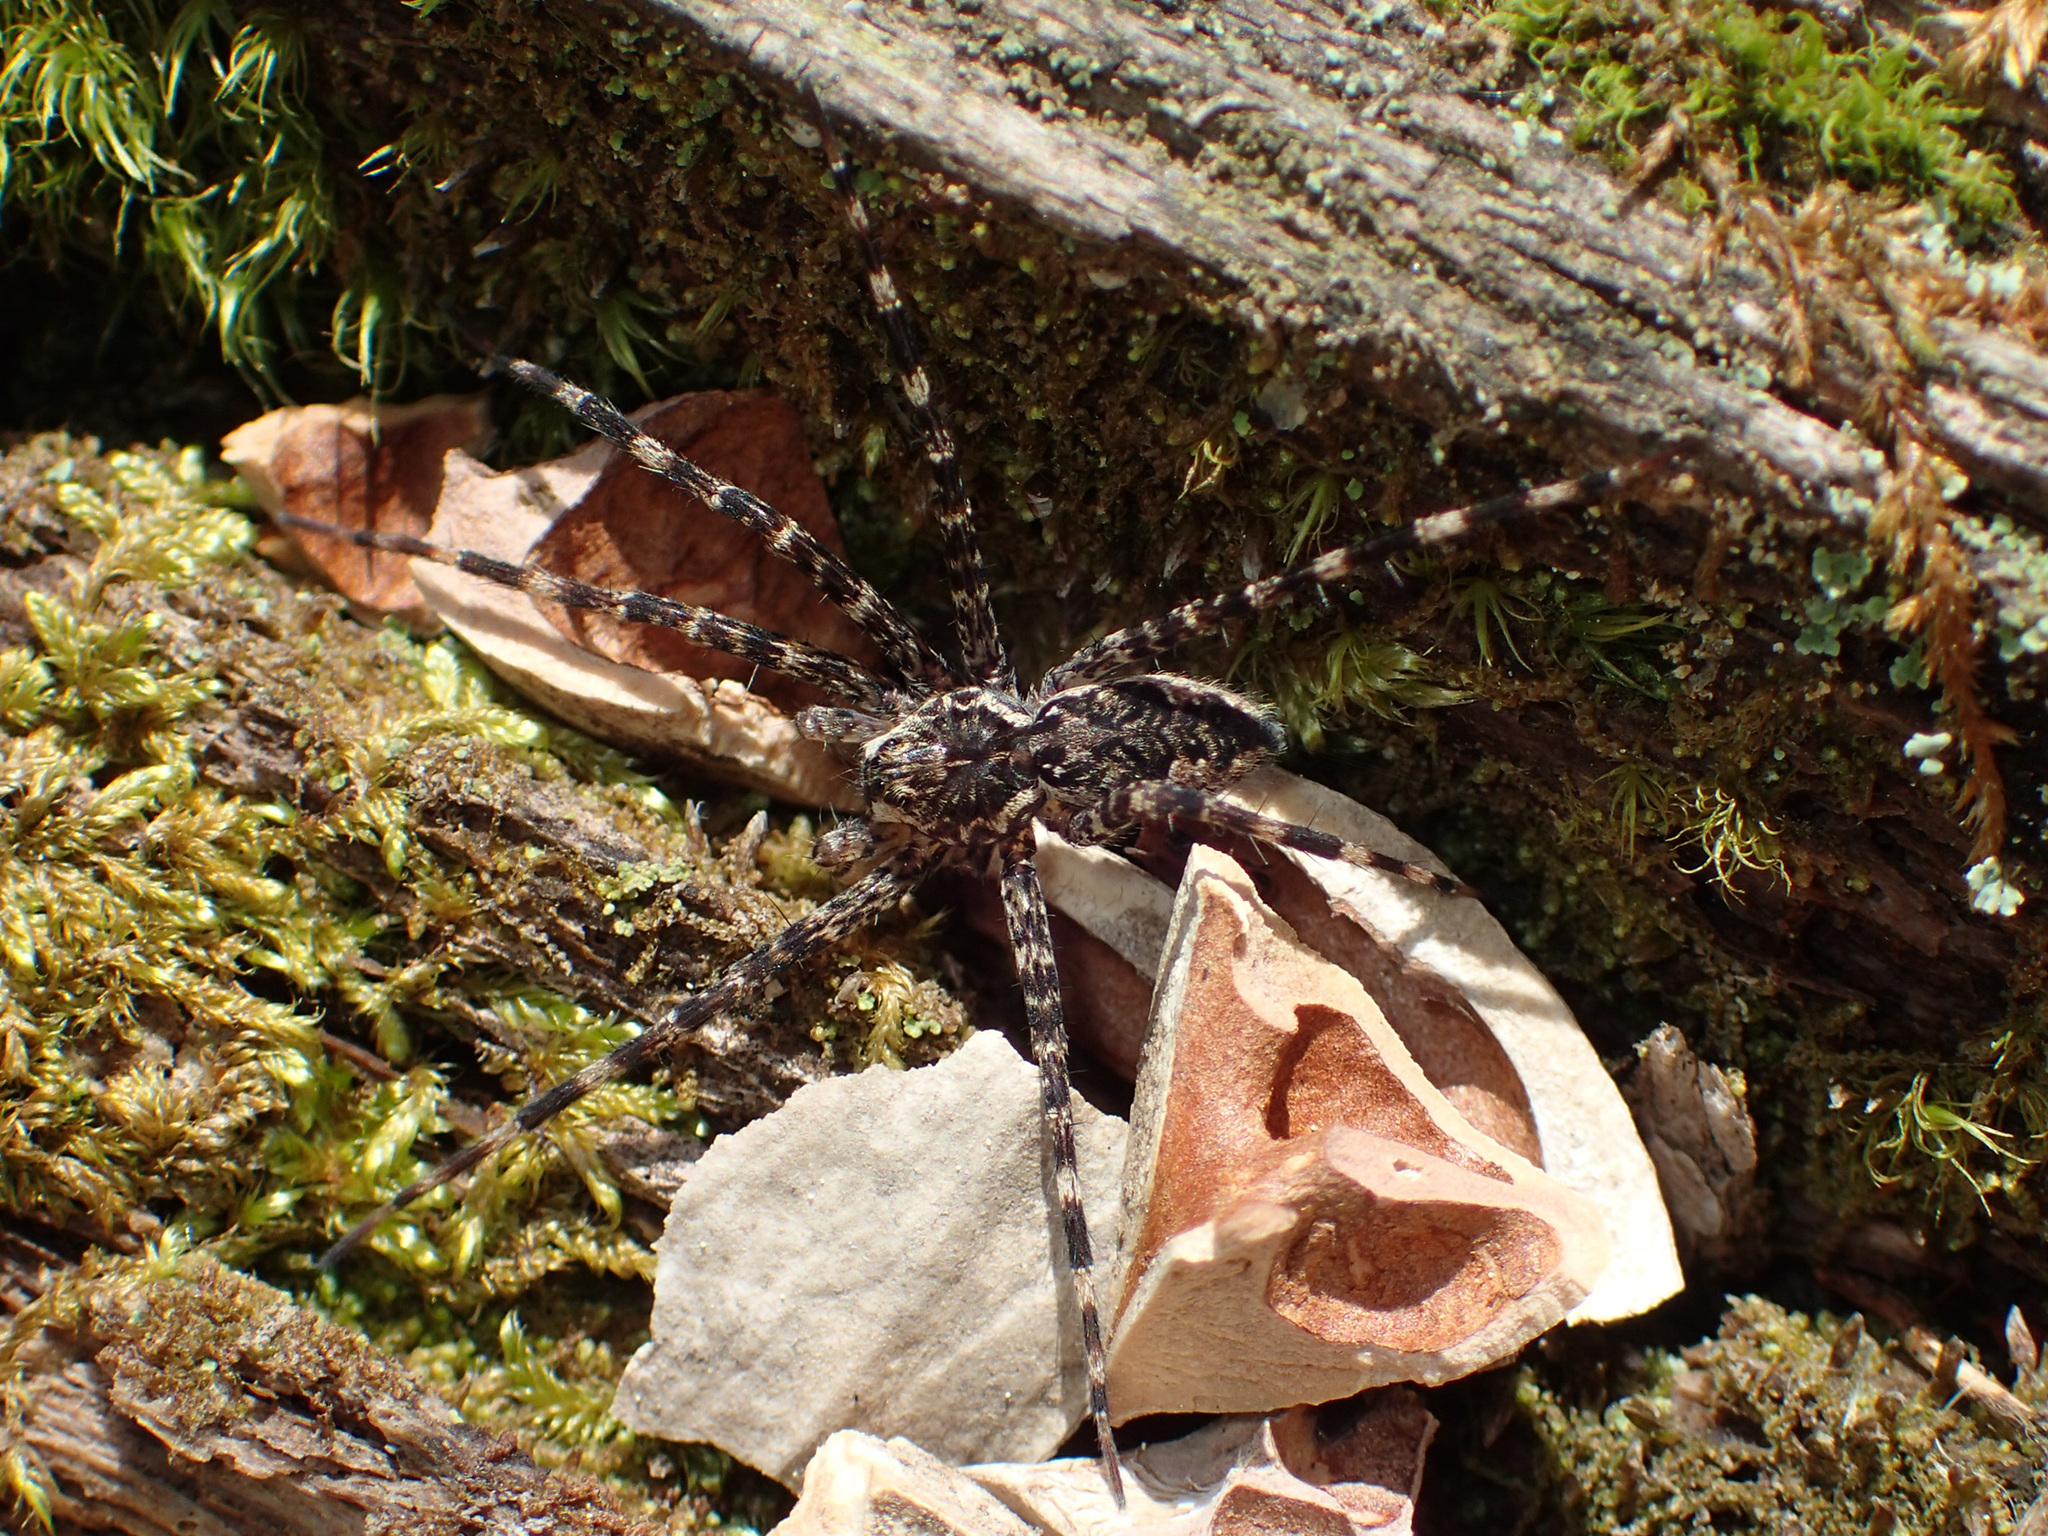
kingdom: Animalia
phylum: Arthropoda
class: Arachnida
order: Araneae
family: Pisauridae
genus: Dolomedes
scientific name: Dolomedes tenebrosus
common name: Dark fishing spider
